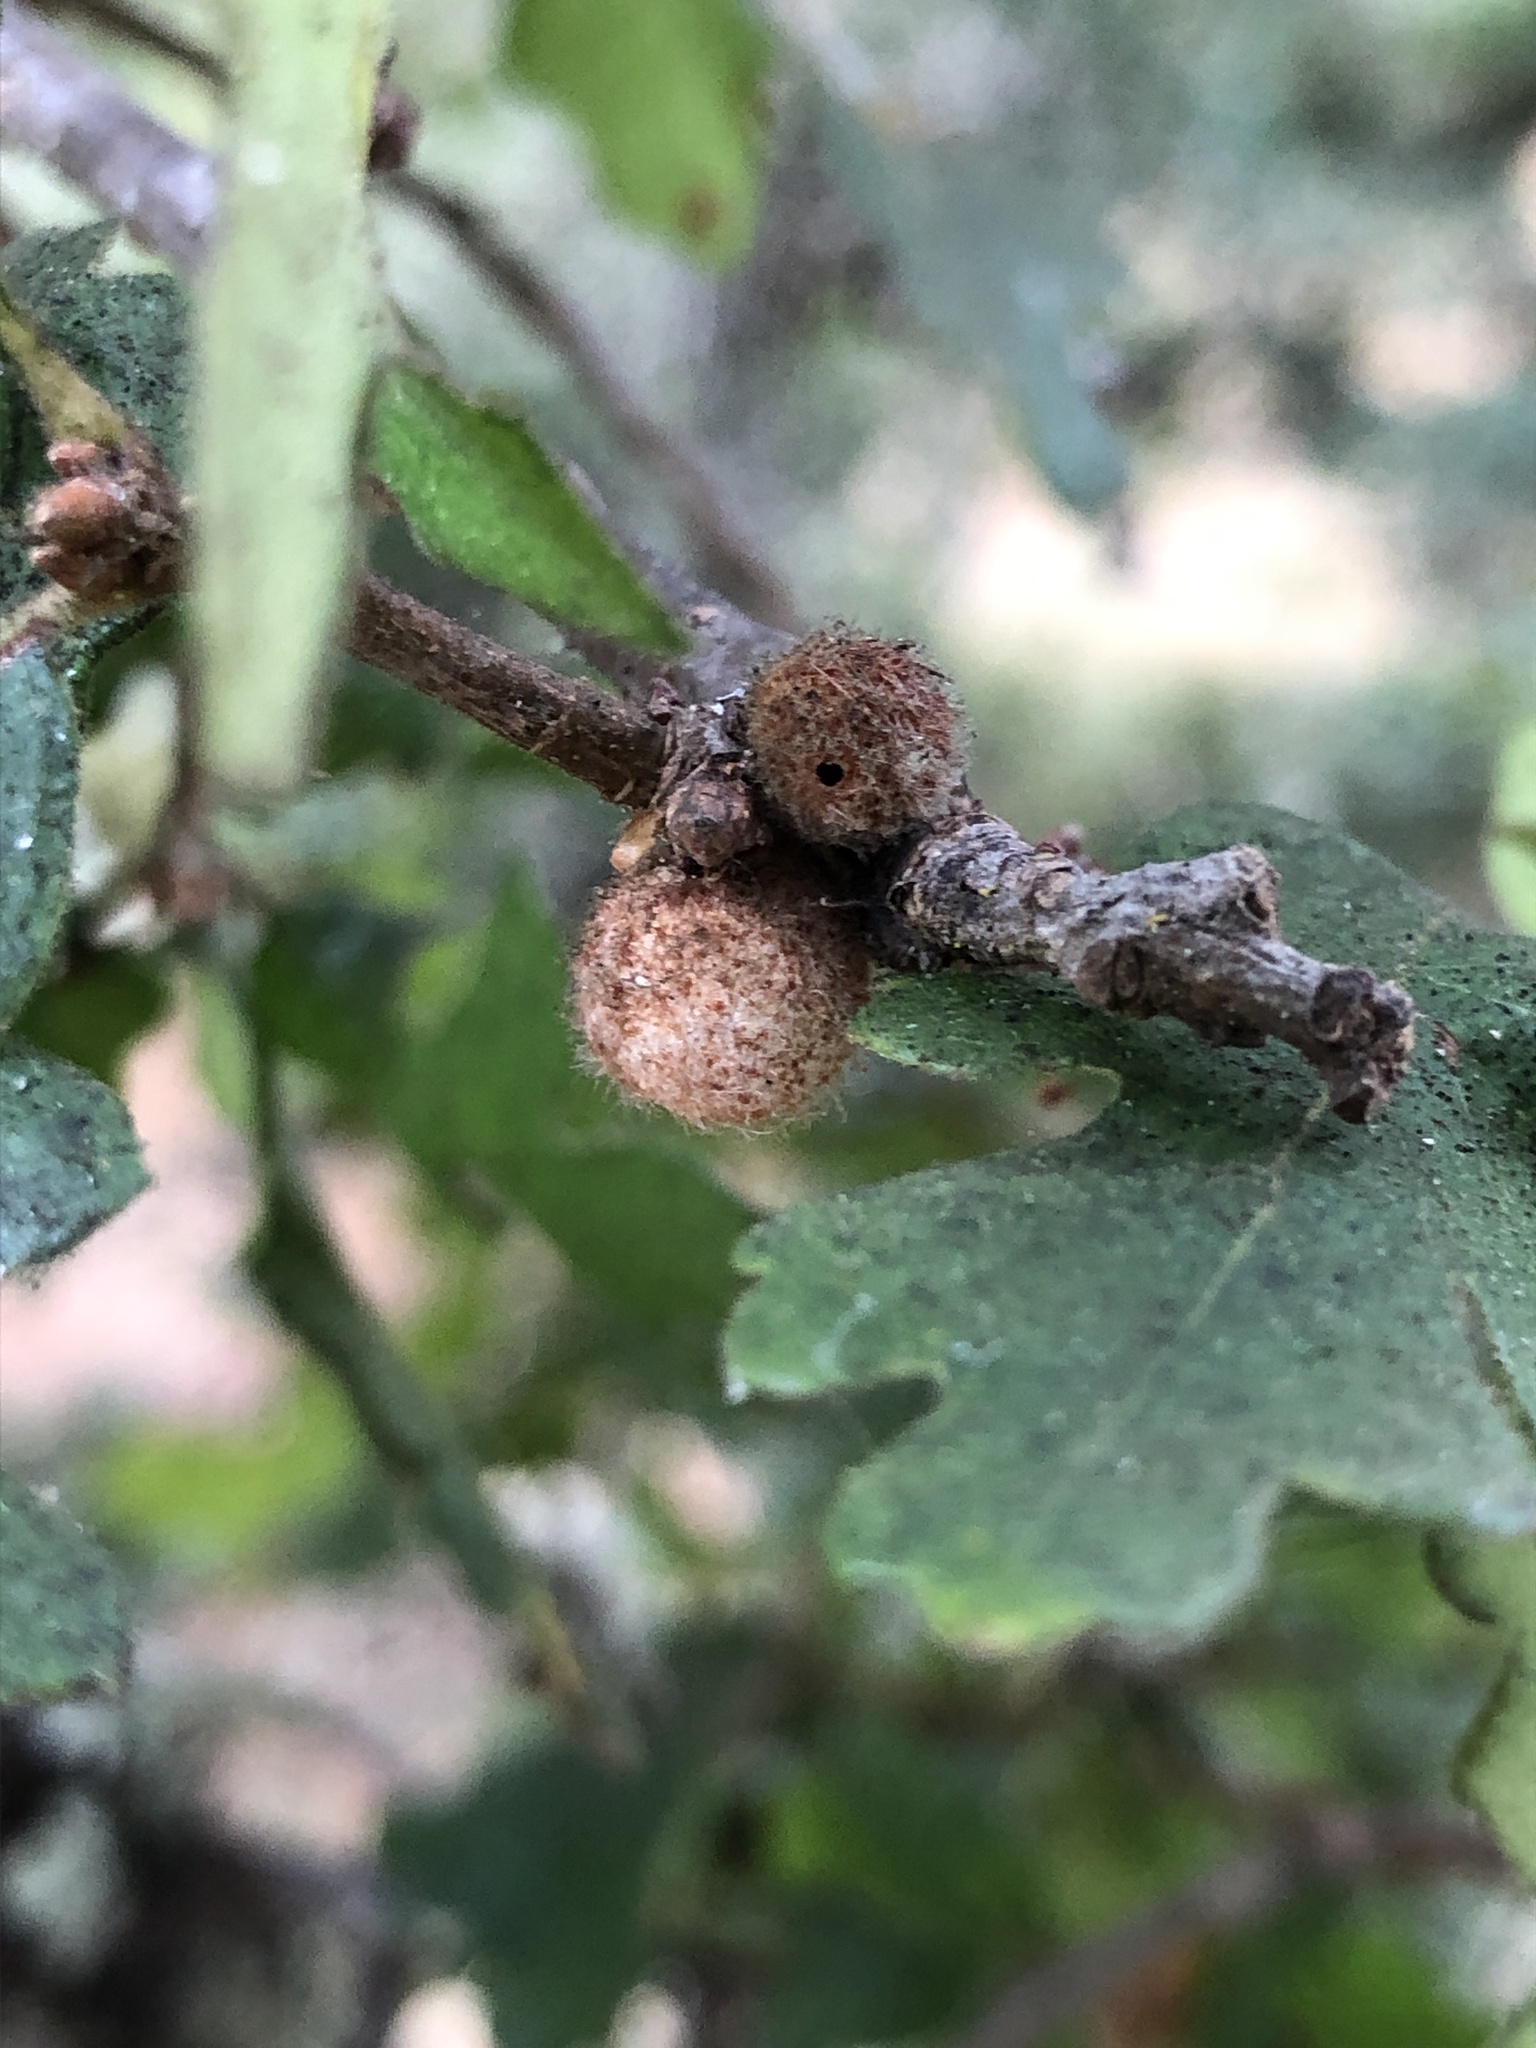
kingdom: Animalia
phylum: Arthropoda
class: Insecta
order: Hymenoptera
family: Cynipidae
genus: Burnettweldia
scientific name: Burnettweldia
